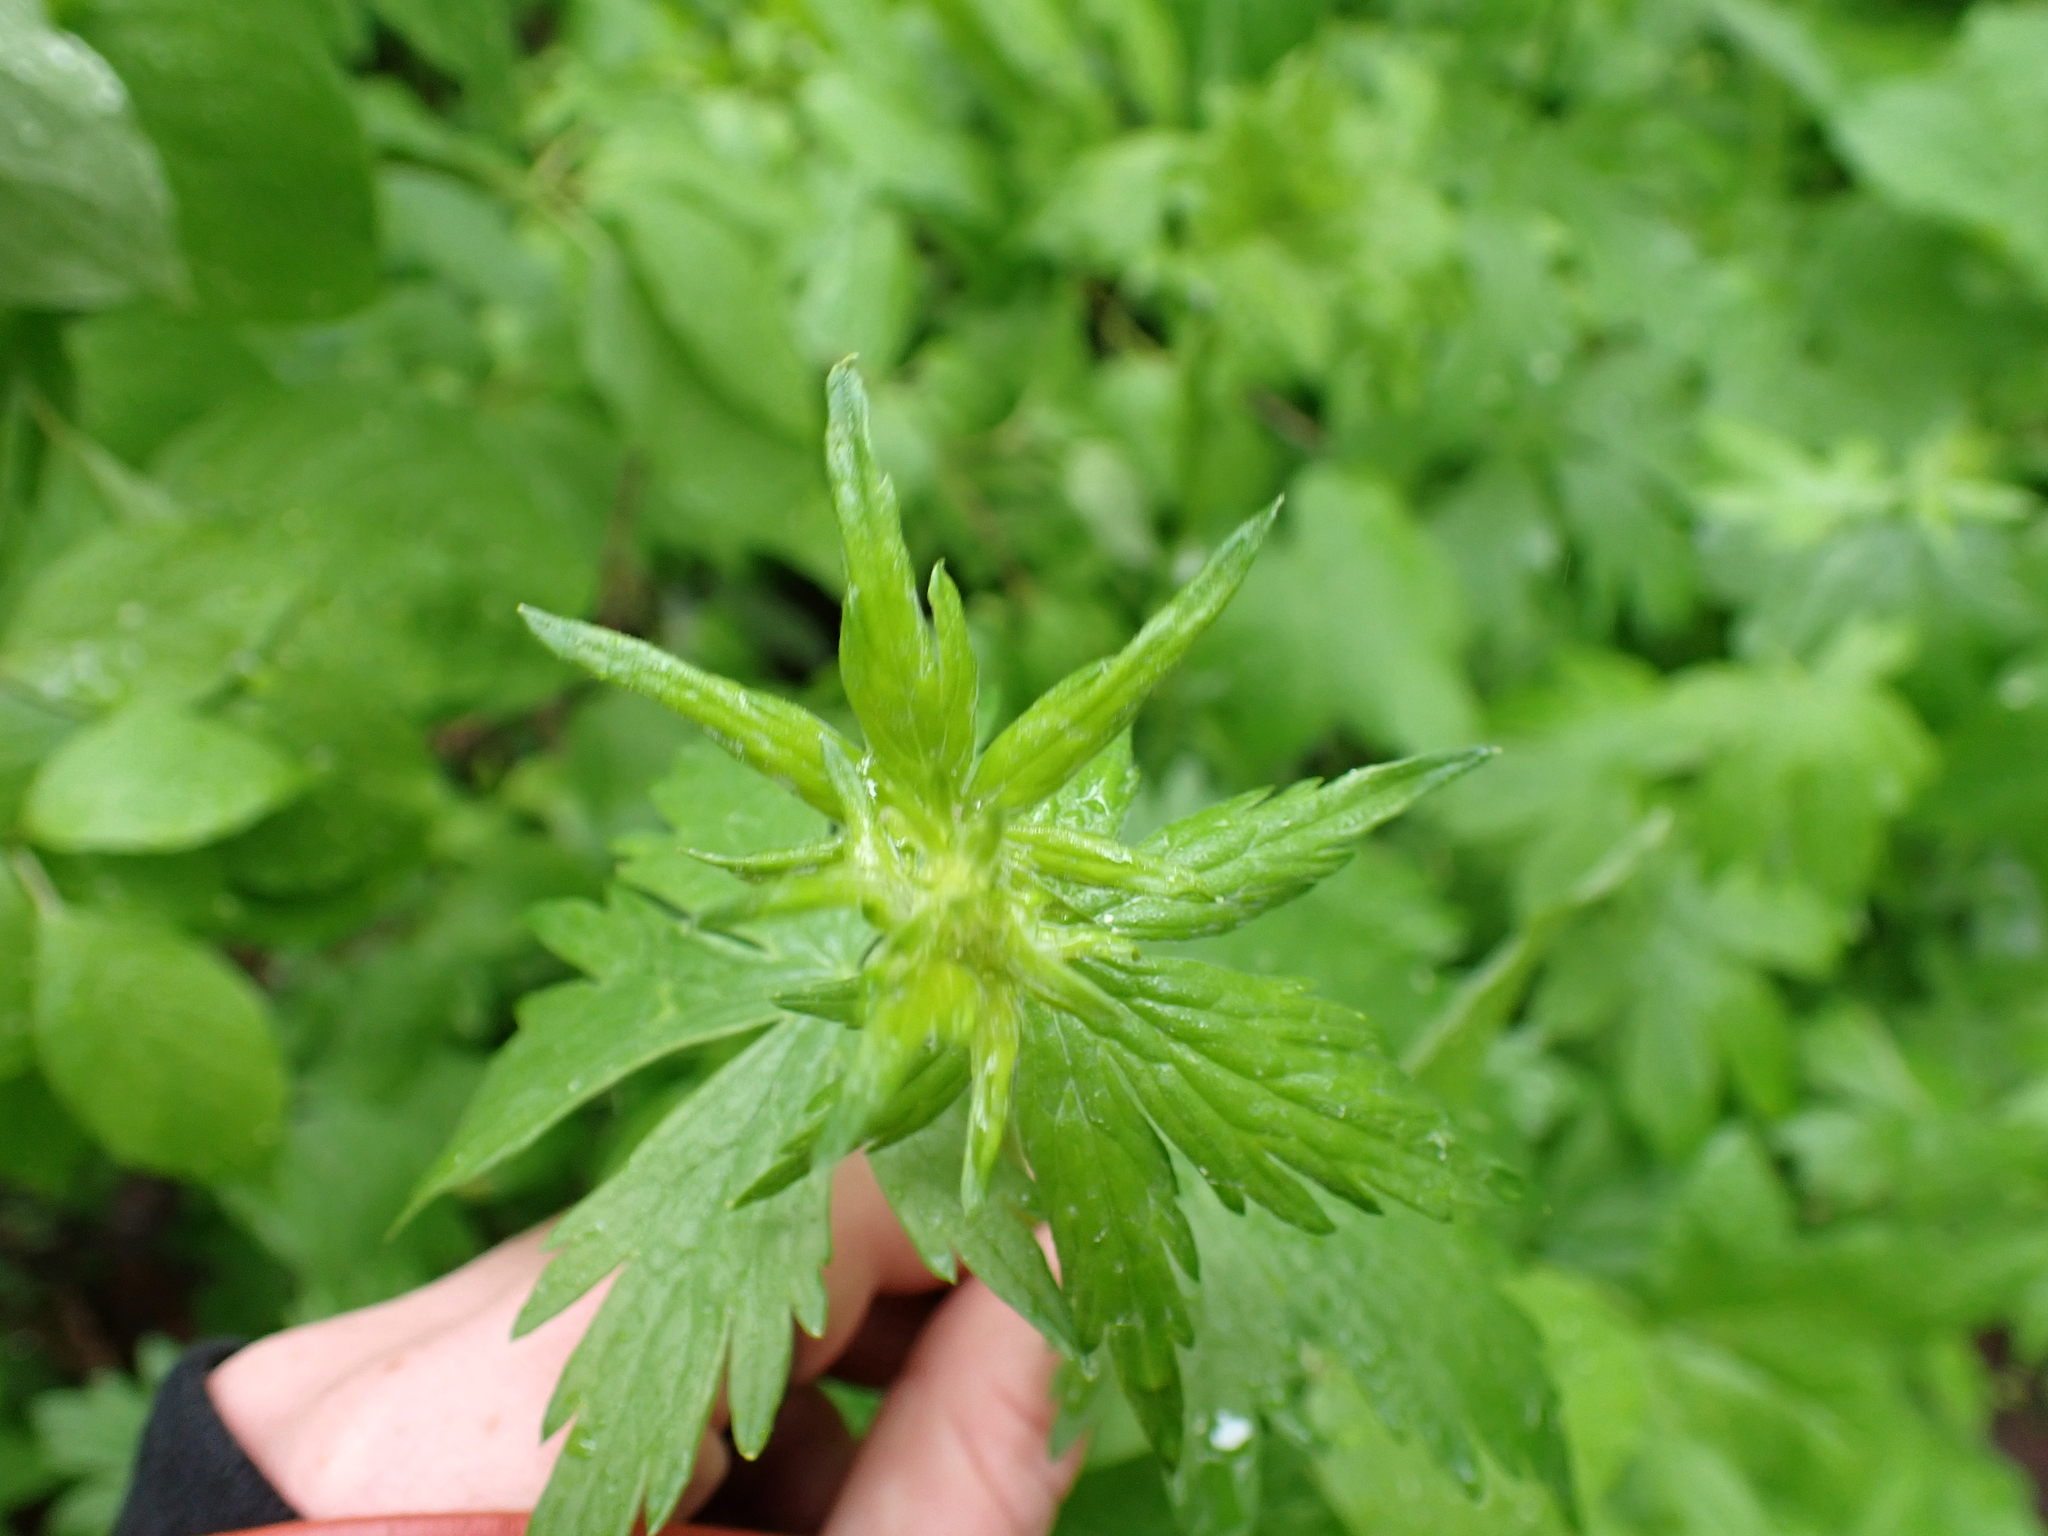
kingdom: Plantae
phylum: Tracheophyta
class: Magnoliopsida
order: Ranunculales
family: Ranunculaceae
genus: Aconitum
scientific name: Aconitum columbianum
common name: Columbia aconite
